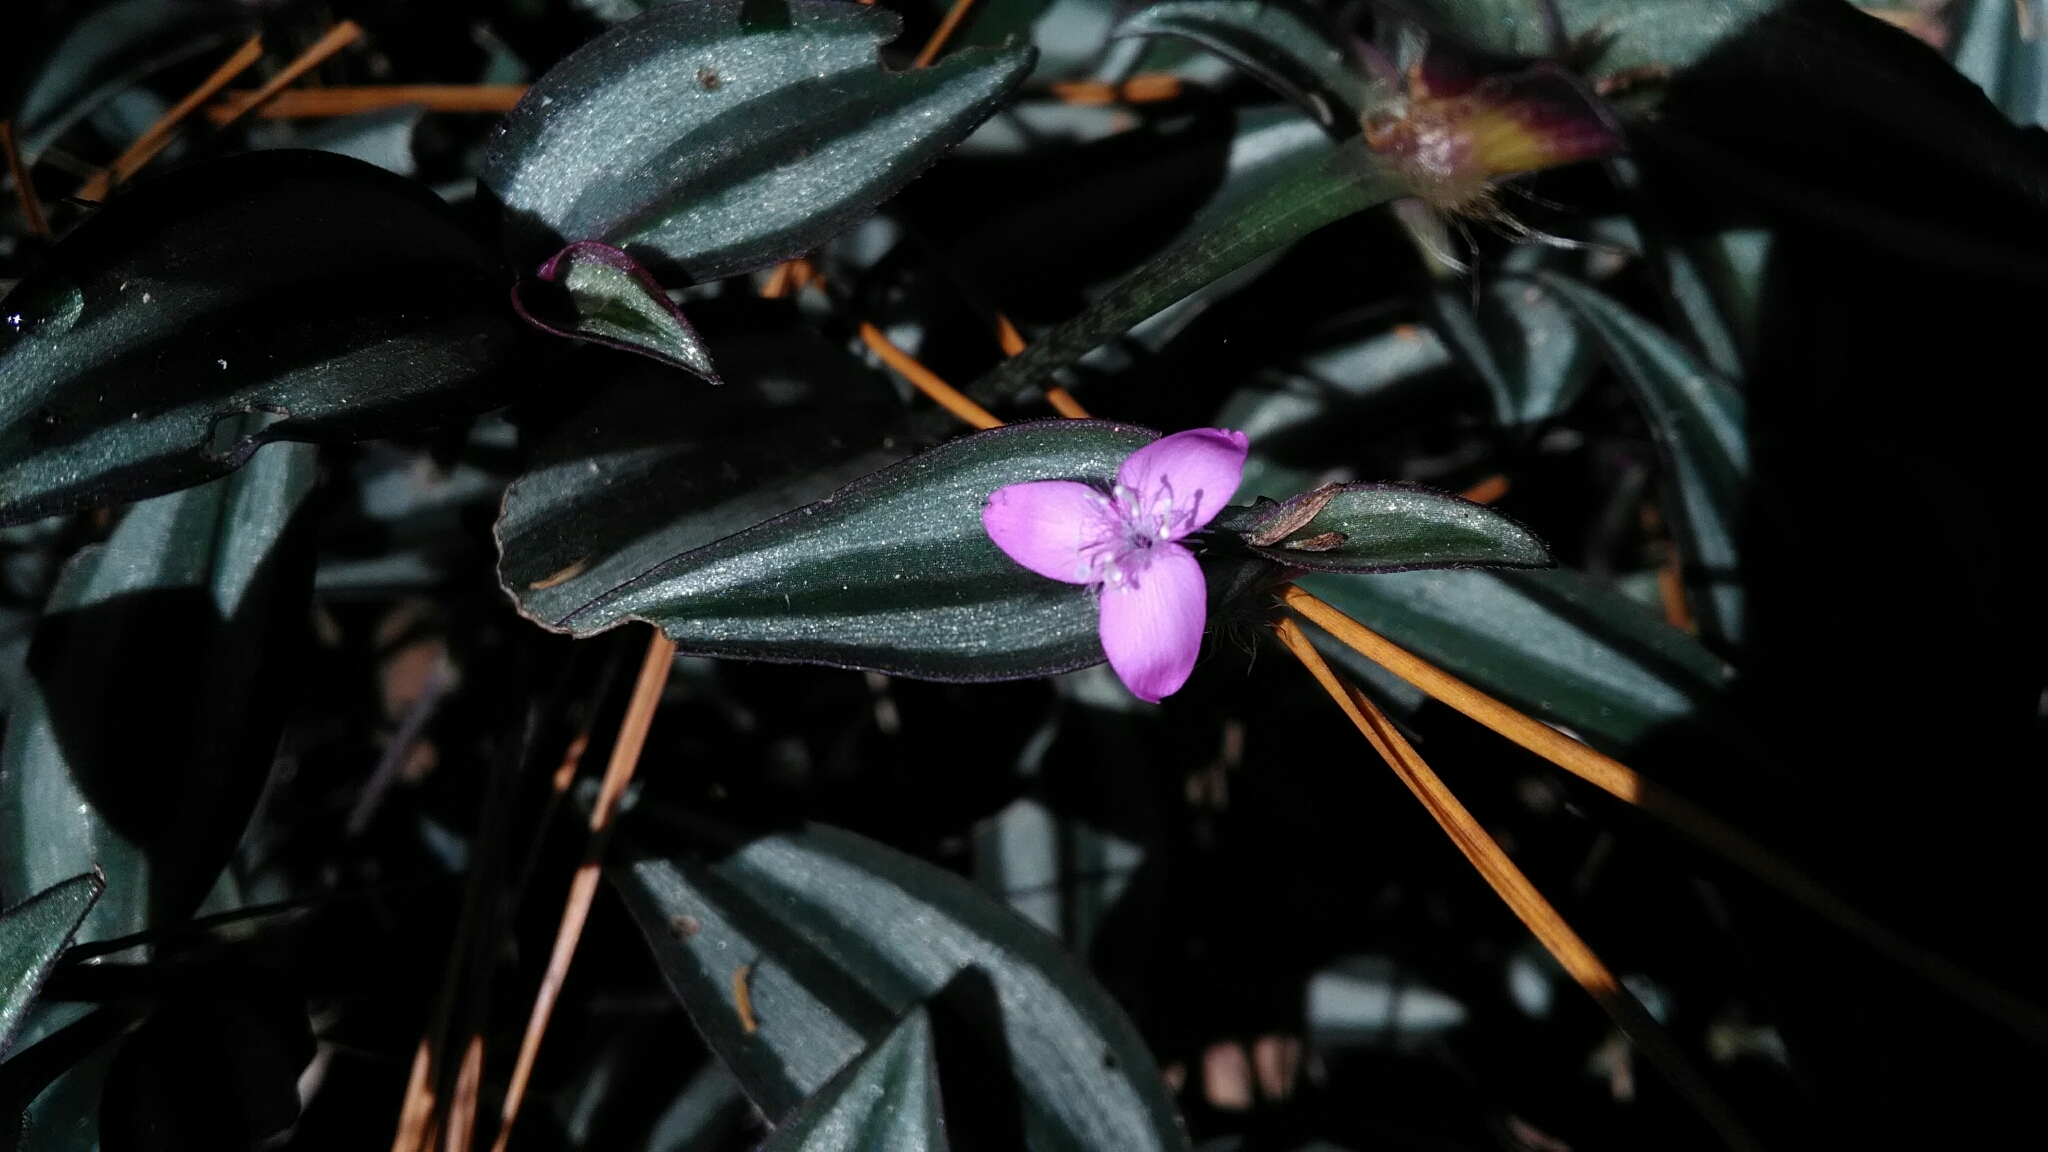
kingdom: Plantae
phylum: Tracheophyta
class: Liliopsida
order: Commelinales
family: Commelinaceae
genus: Tradescantia
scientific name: Tradescantia zebrina
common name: Inchplant
